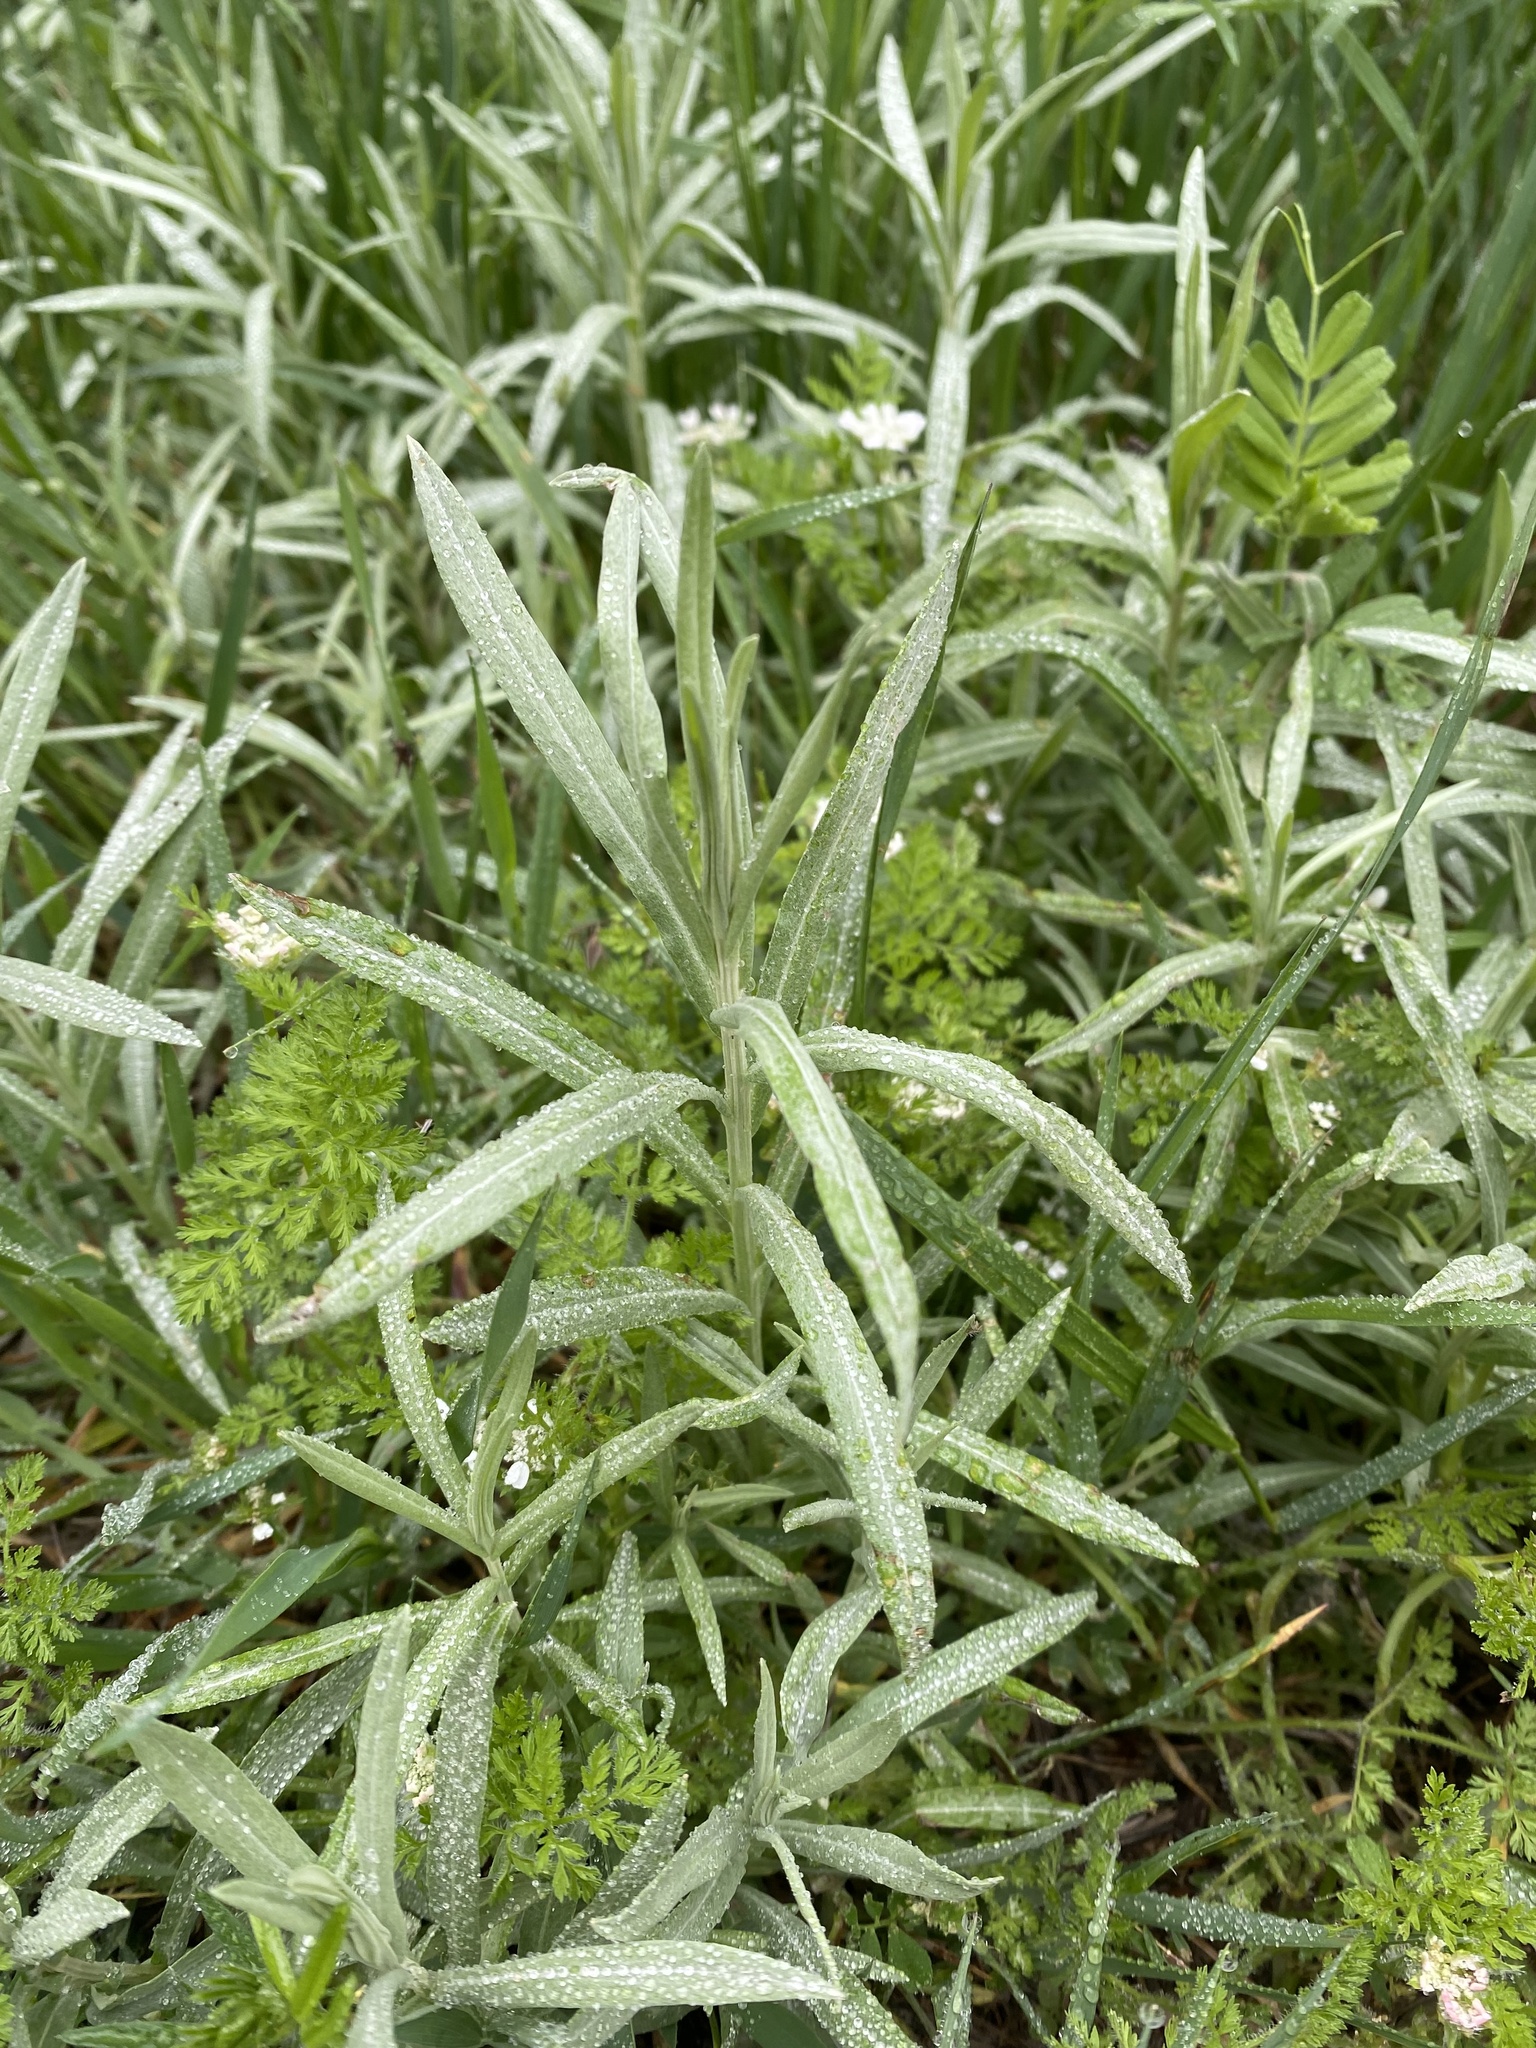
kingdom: Plantae
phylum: Tracheophyta
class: Magnoliopsida
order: Asterales
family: Asteraceae
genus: Xeranthemum
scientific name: Xeranthemum cylindraceum
